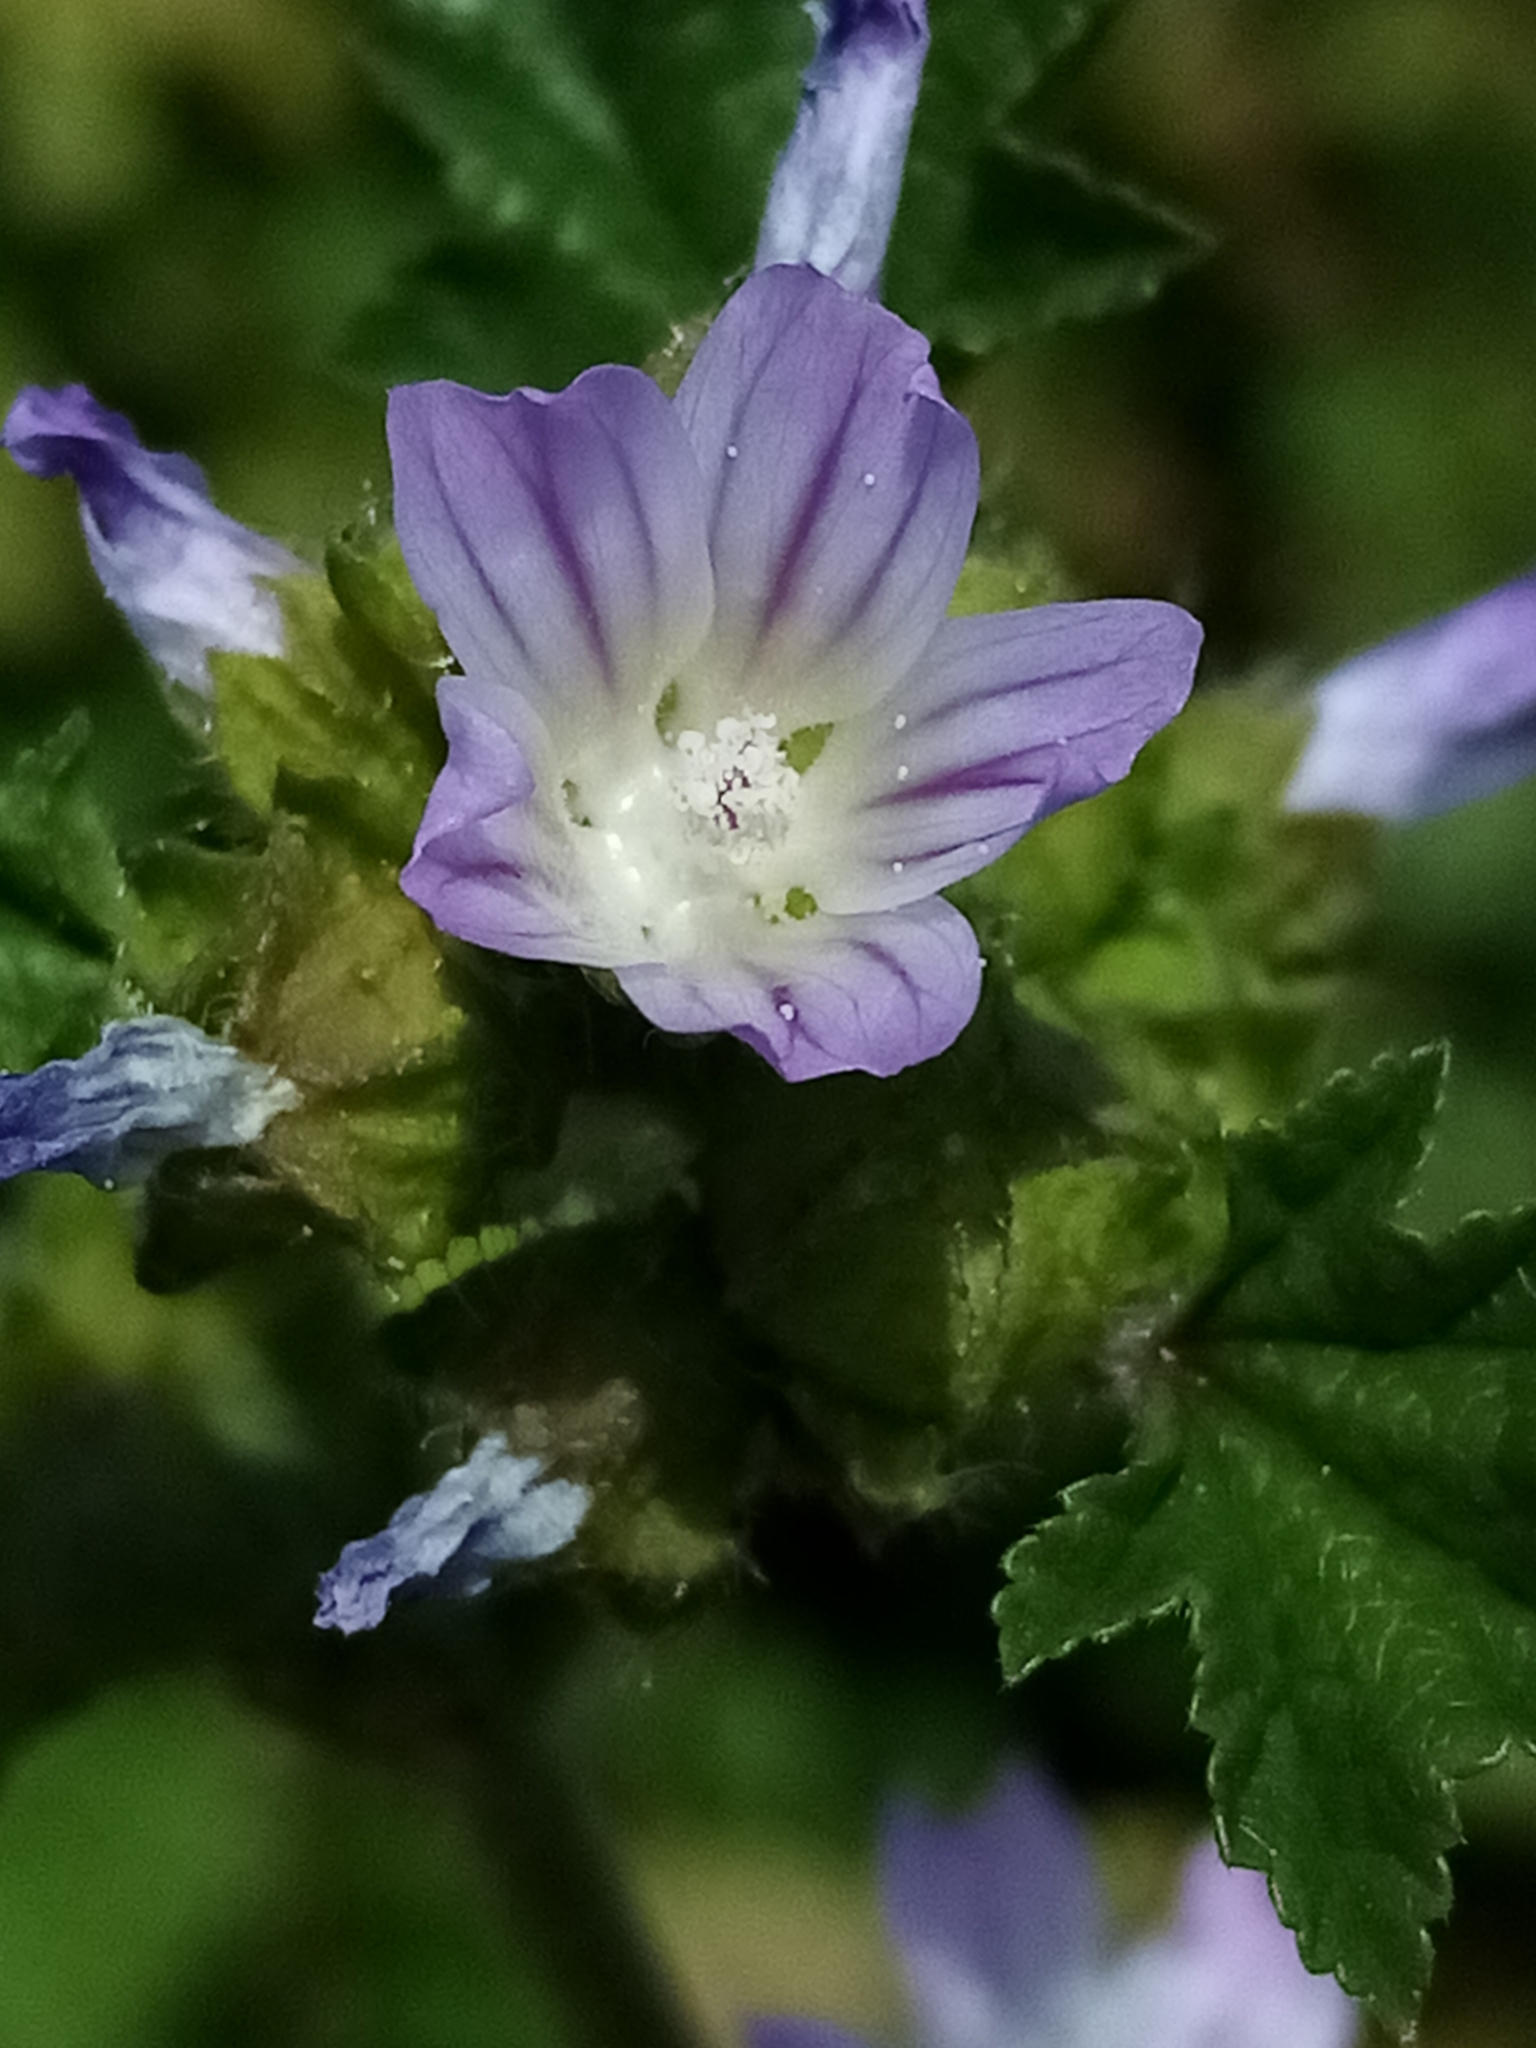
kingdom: Plantae
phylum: Tracheophyta
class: Magnoliopsida
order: Malvales
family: Malvaceae
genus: Malva
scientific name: Malva nicaeensis
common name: French mallow
